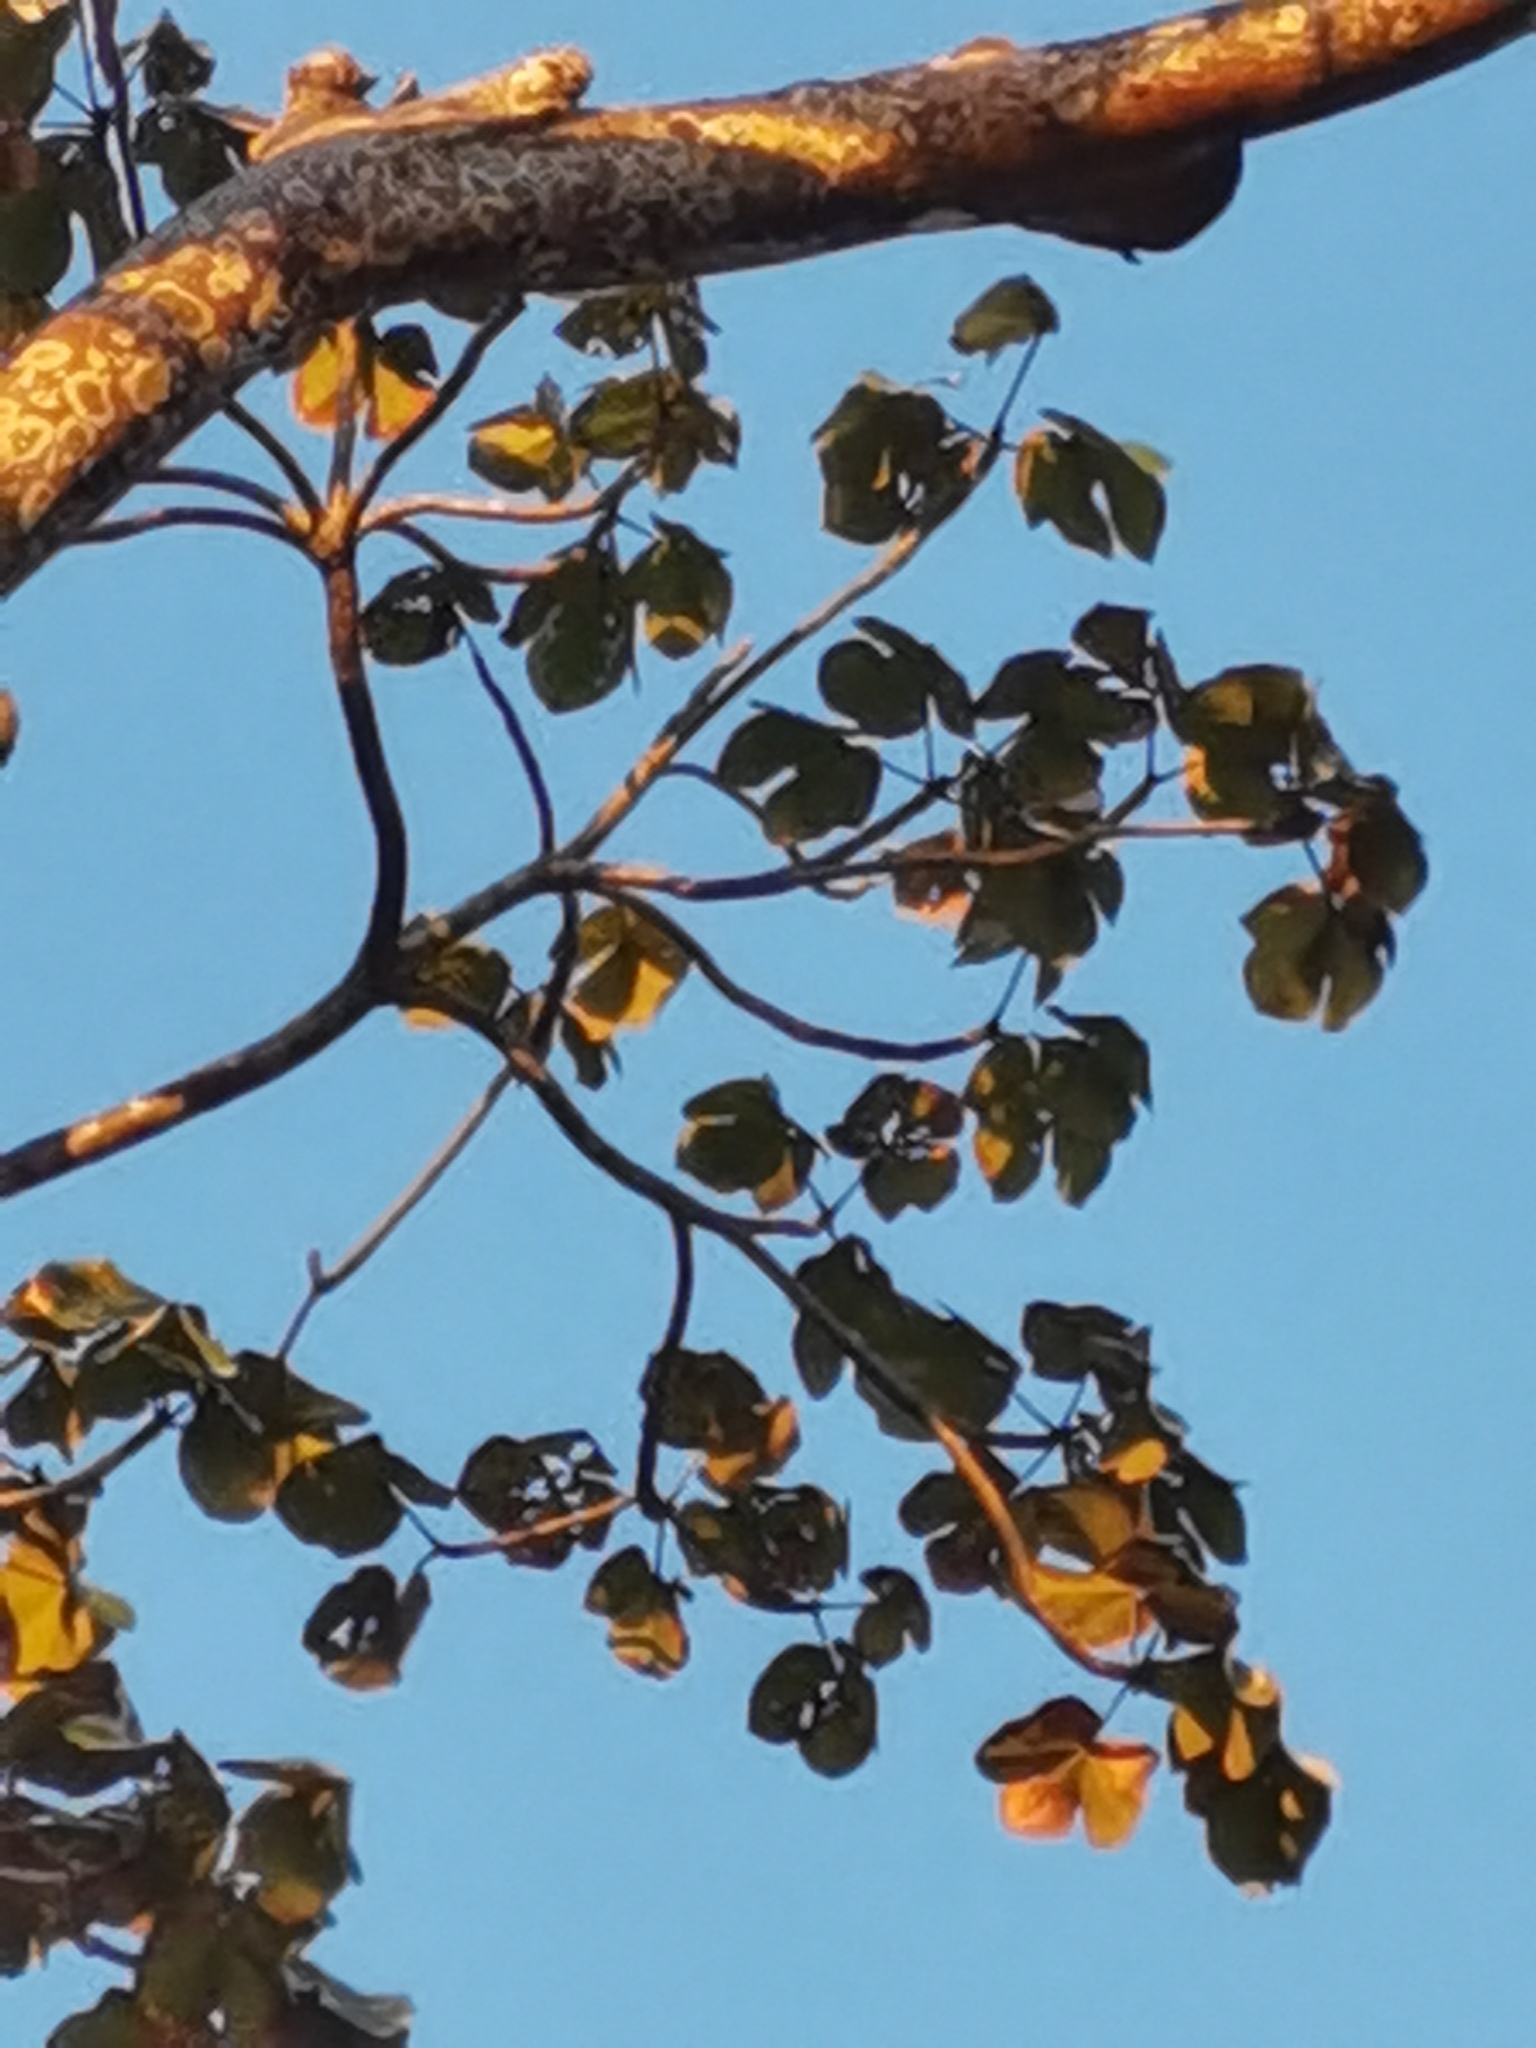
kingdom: Plantae
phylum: Tracheophyta
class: Magnoliopsida
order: Malvales
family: Malvaceae
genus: Sterculia
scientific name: Sterculia apetala
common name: Panama tree
